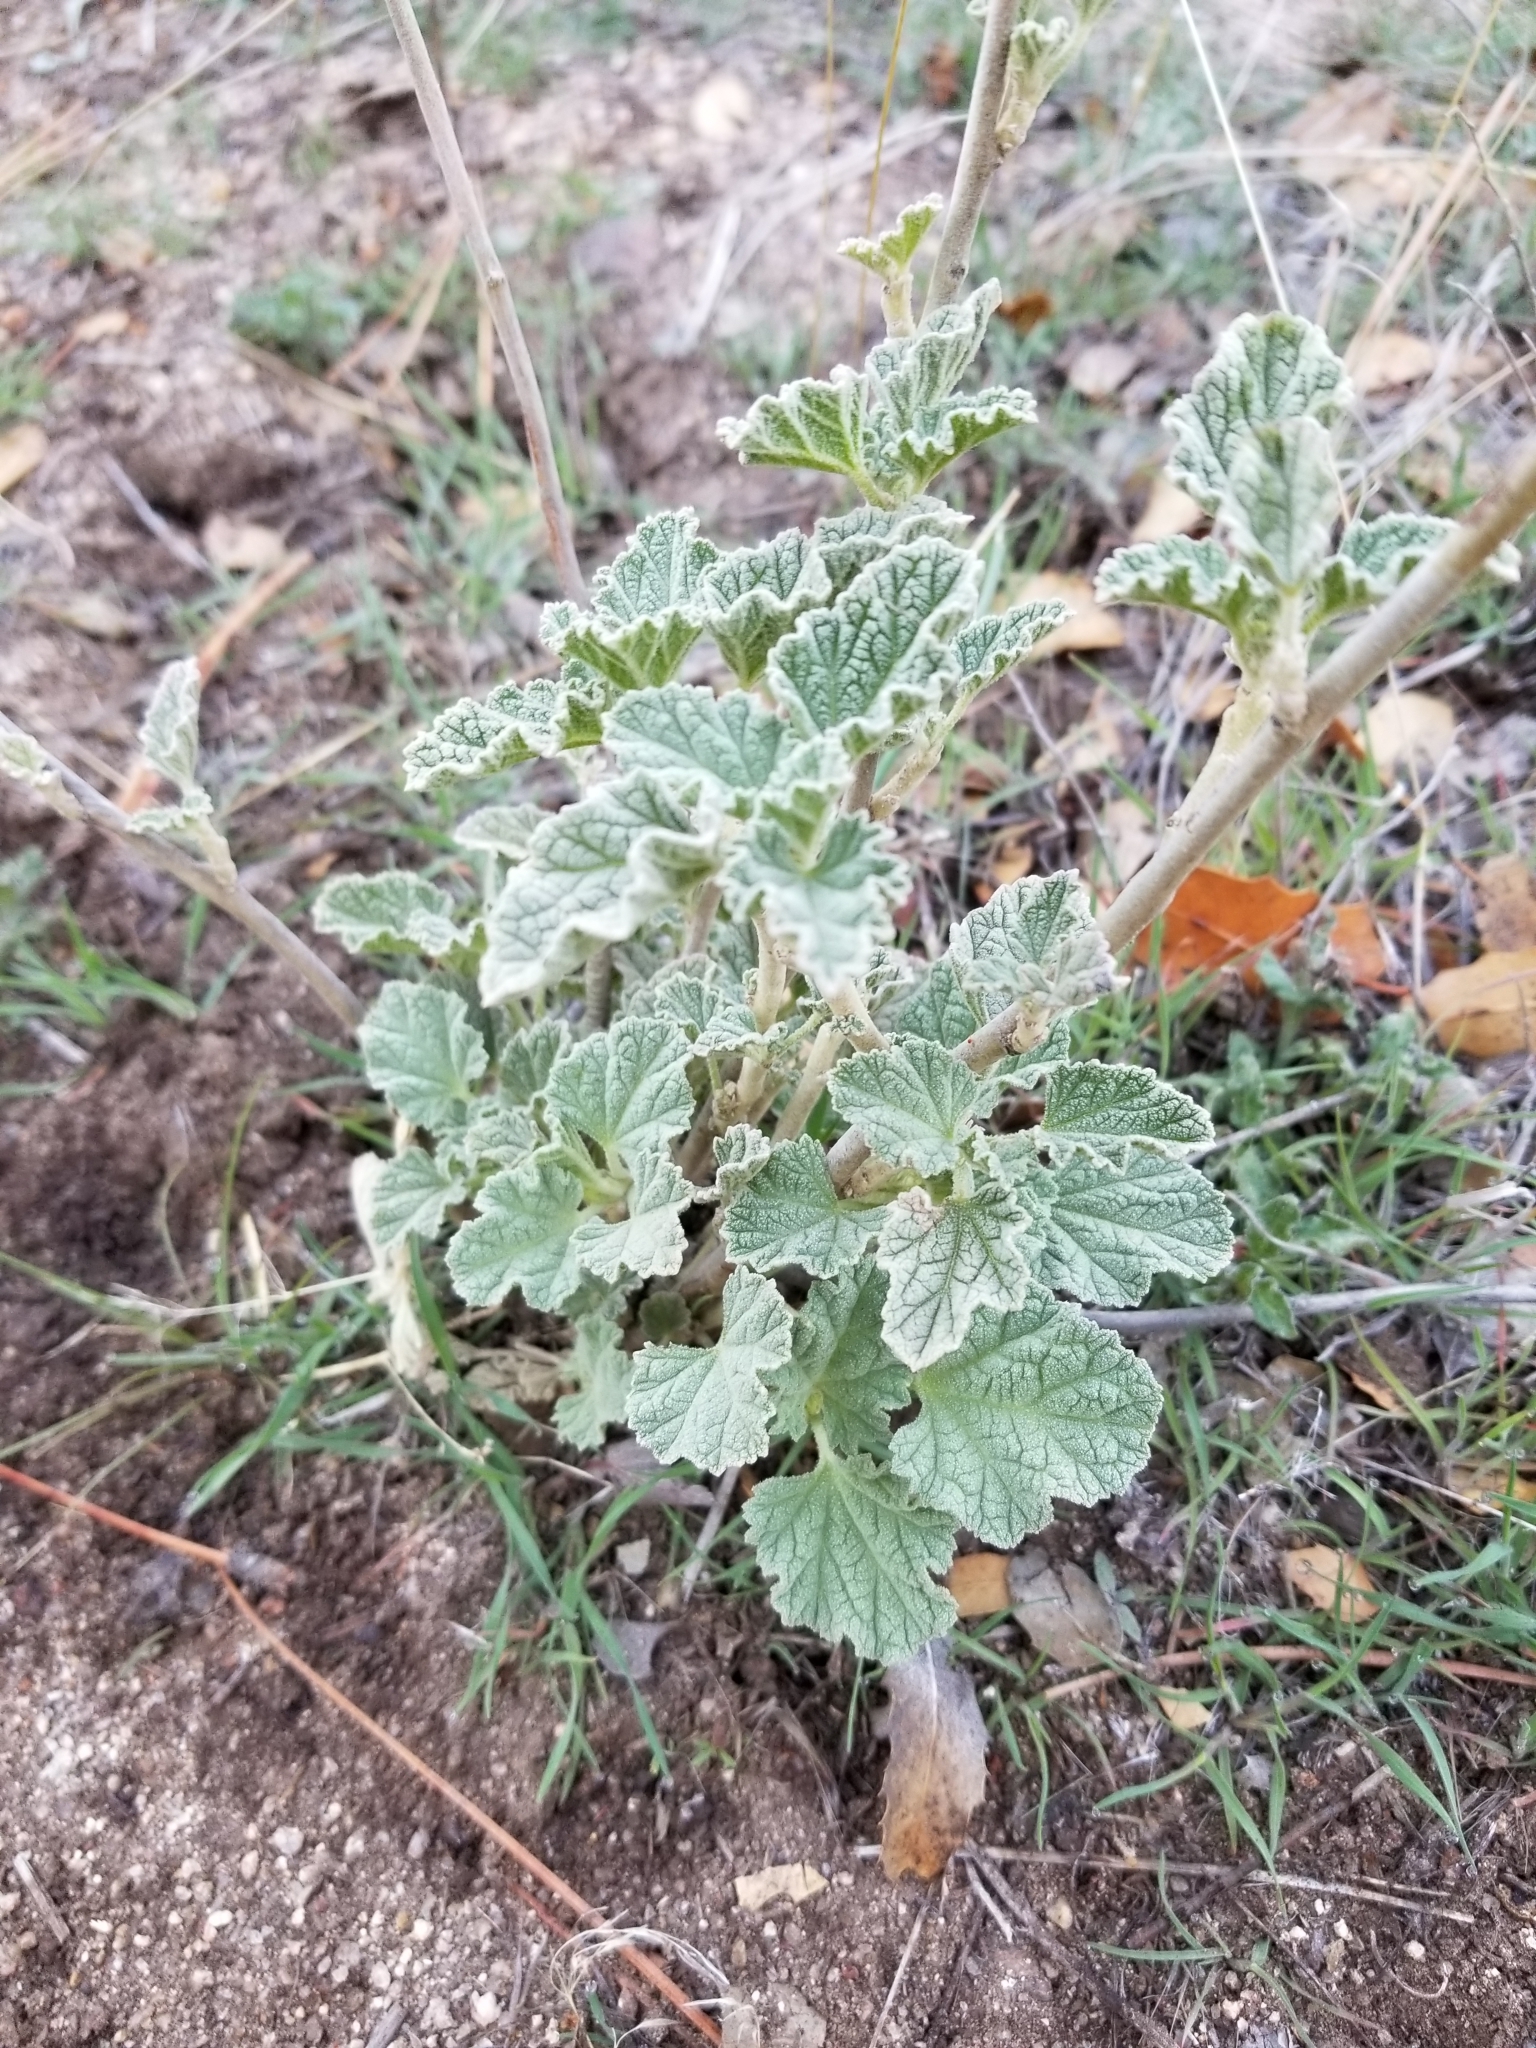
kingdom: Plantae
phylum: Tracheophyta
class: Magnoliopsida
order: Malvales
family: Malvaceae
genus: Sphaeralcea
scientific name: Sphaeralcea ambigua
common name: Apricot globe-mallow
